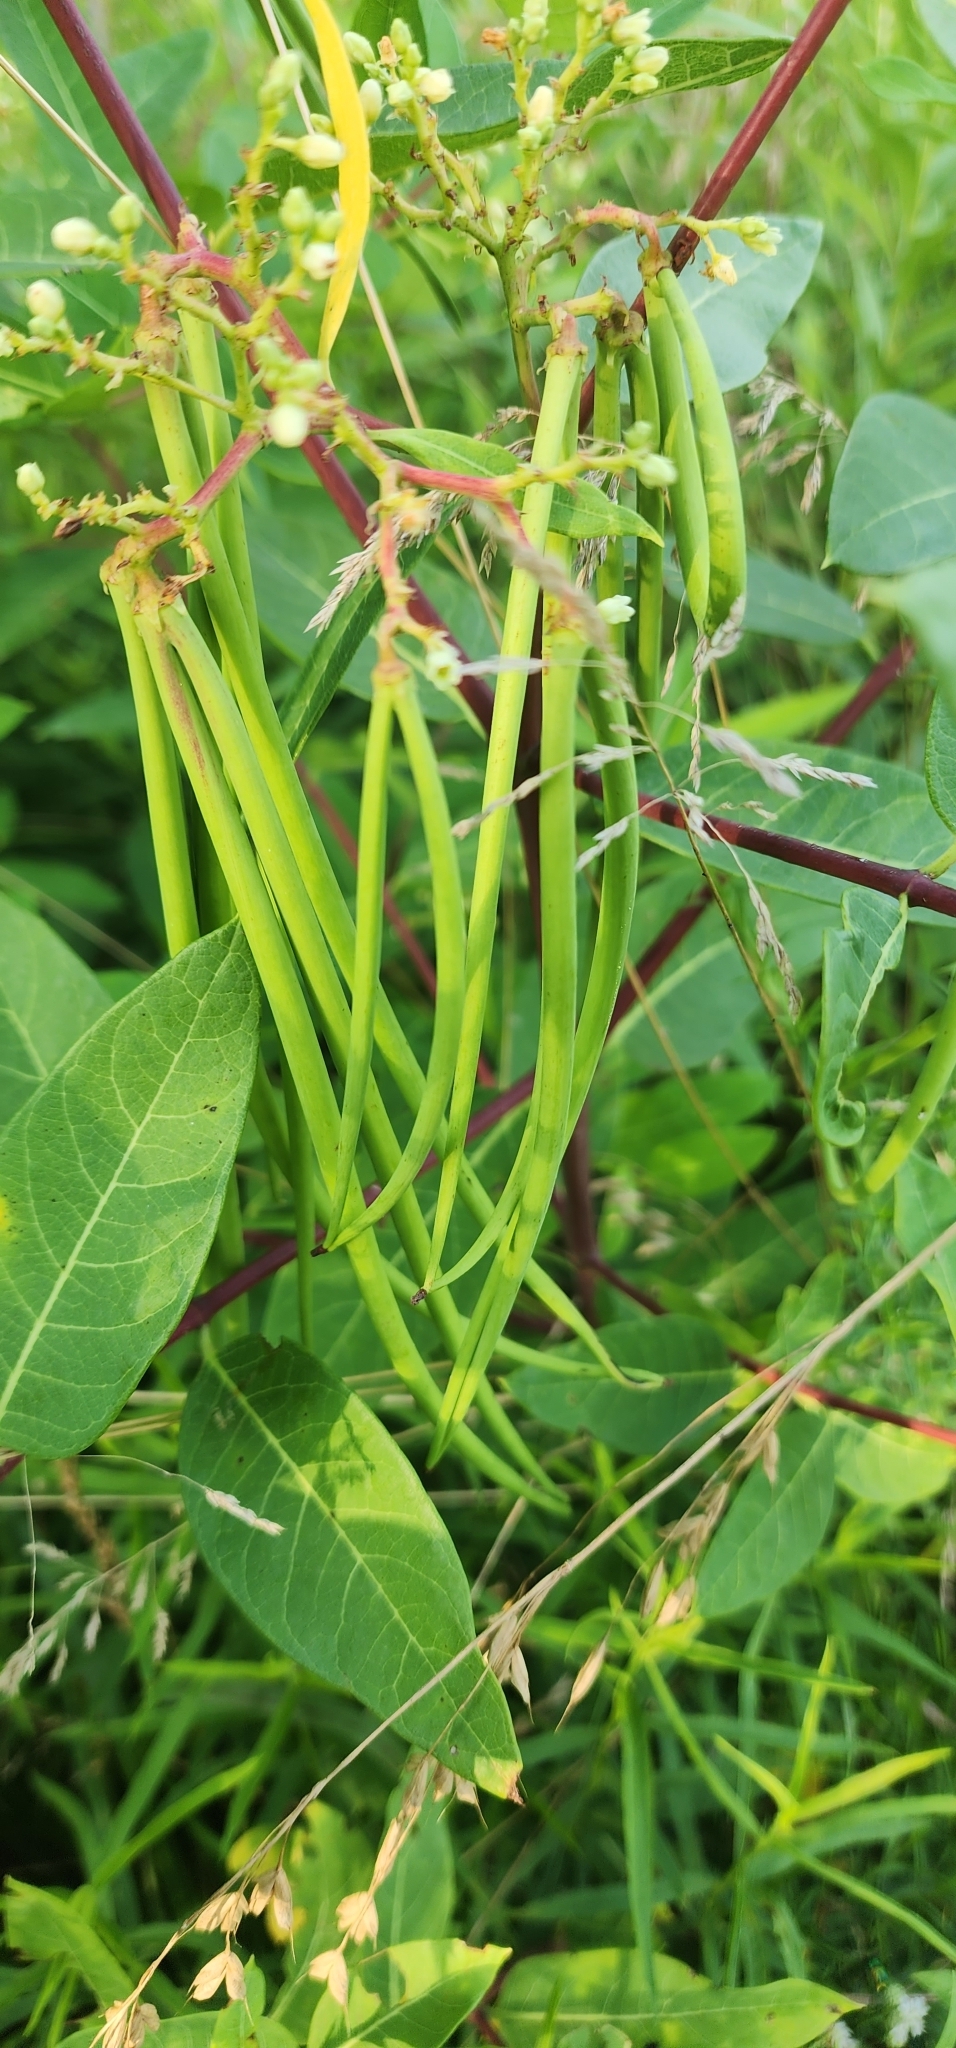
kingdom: Plantae
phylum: Tracheophyta
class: Magnoliopsida
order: Gentianales
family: Apocynaceae
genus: Apocynum
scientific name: Apocynum cannabinum
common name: Hemp dogbane
